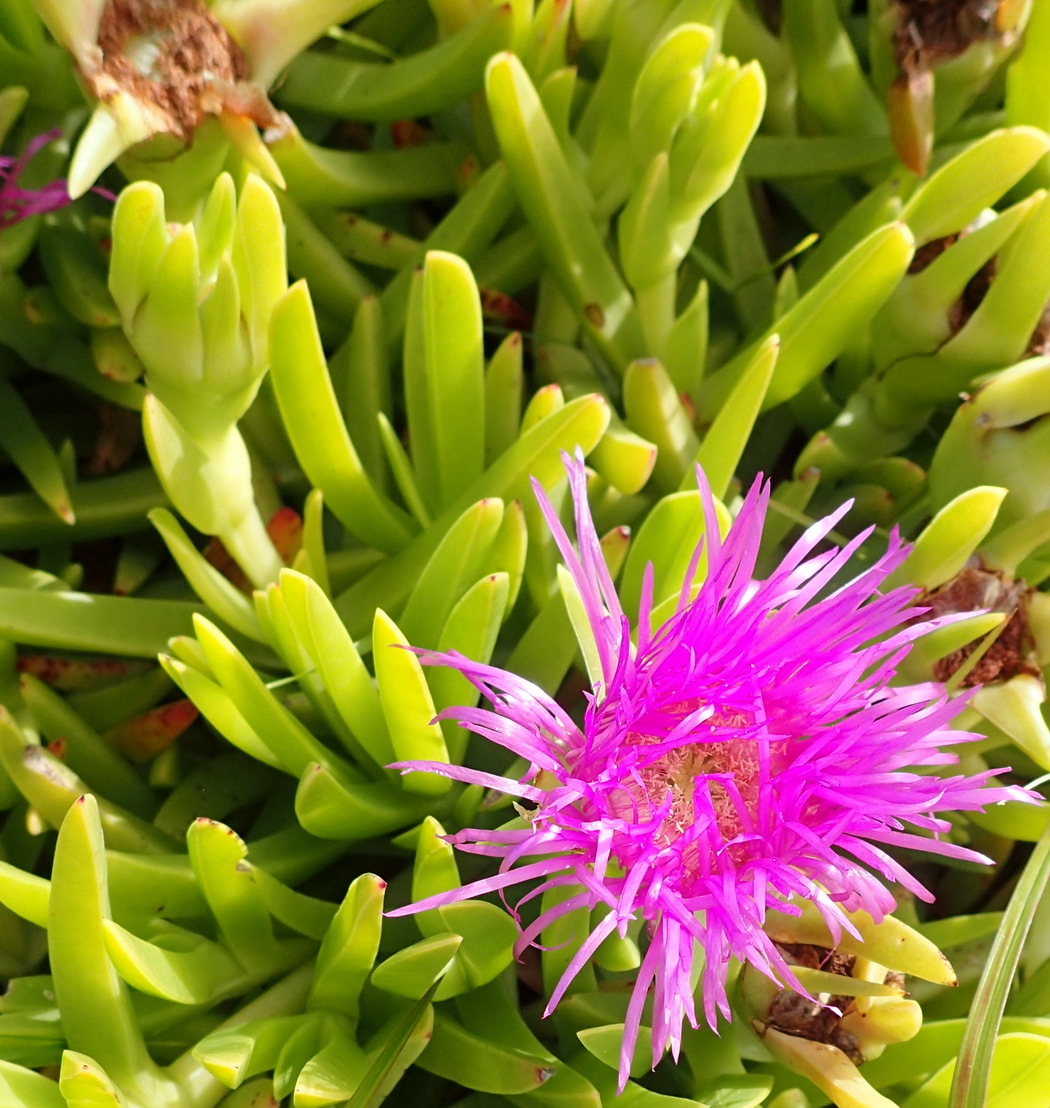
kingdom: Plantae
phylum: Tracheophyta
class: Magnoliopsida
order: Caryophyllales
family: Aizoaceae
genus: Carpobrotus
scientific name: Carpobrotus deliciosus
